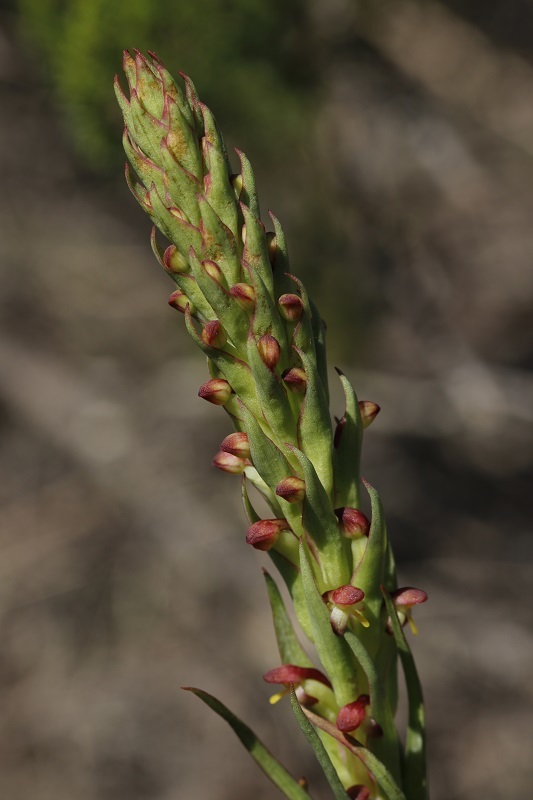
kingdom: Plantae
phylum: Tracheophyta
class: Liliopsida
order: Asparagales
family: Orchidaceae
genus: Disa
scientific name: Disa bracteata
